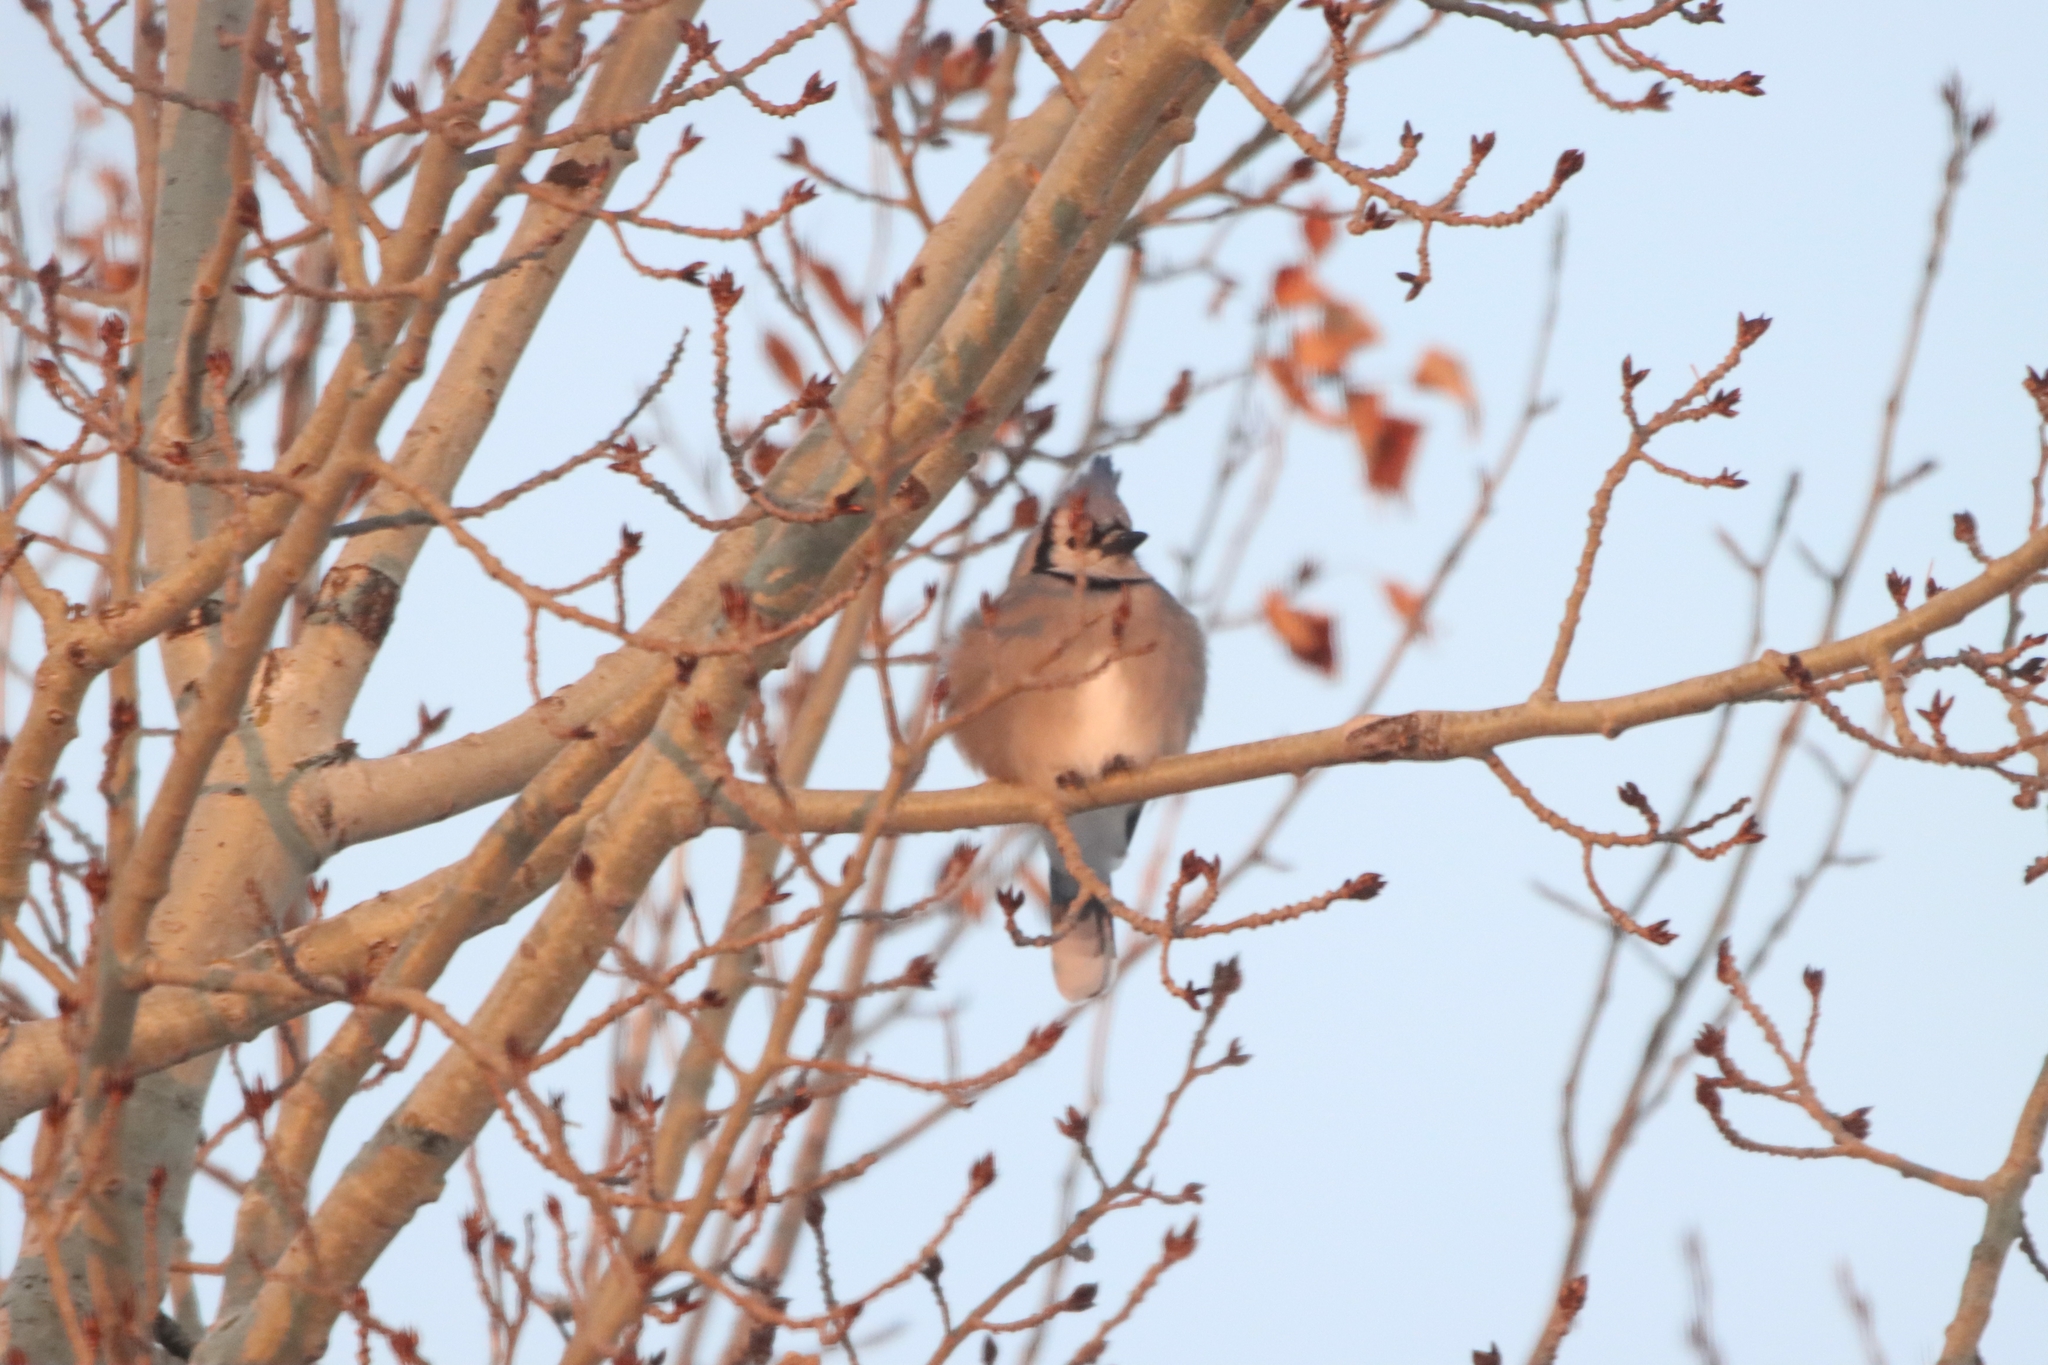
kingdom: Animalia
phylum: Chordata
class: Aves
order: Passeriformes
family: Corvidae
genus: Cyanocitta
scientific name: Cyanocitta cristata
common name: Blue jay
